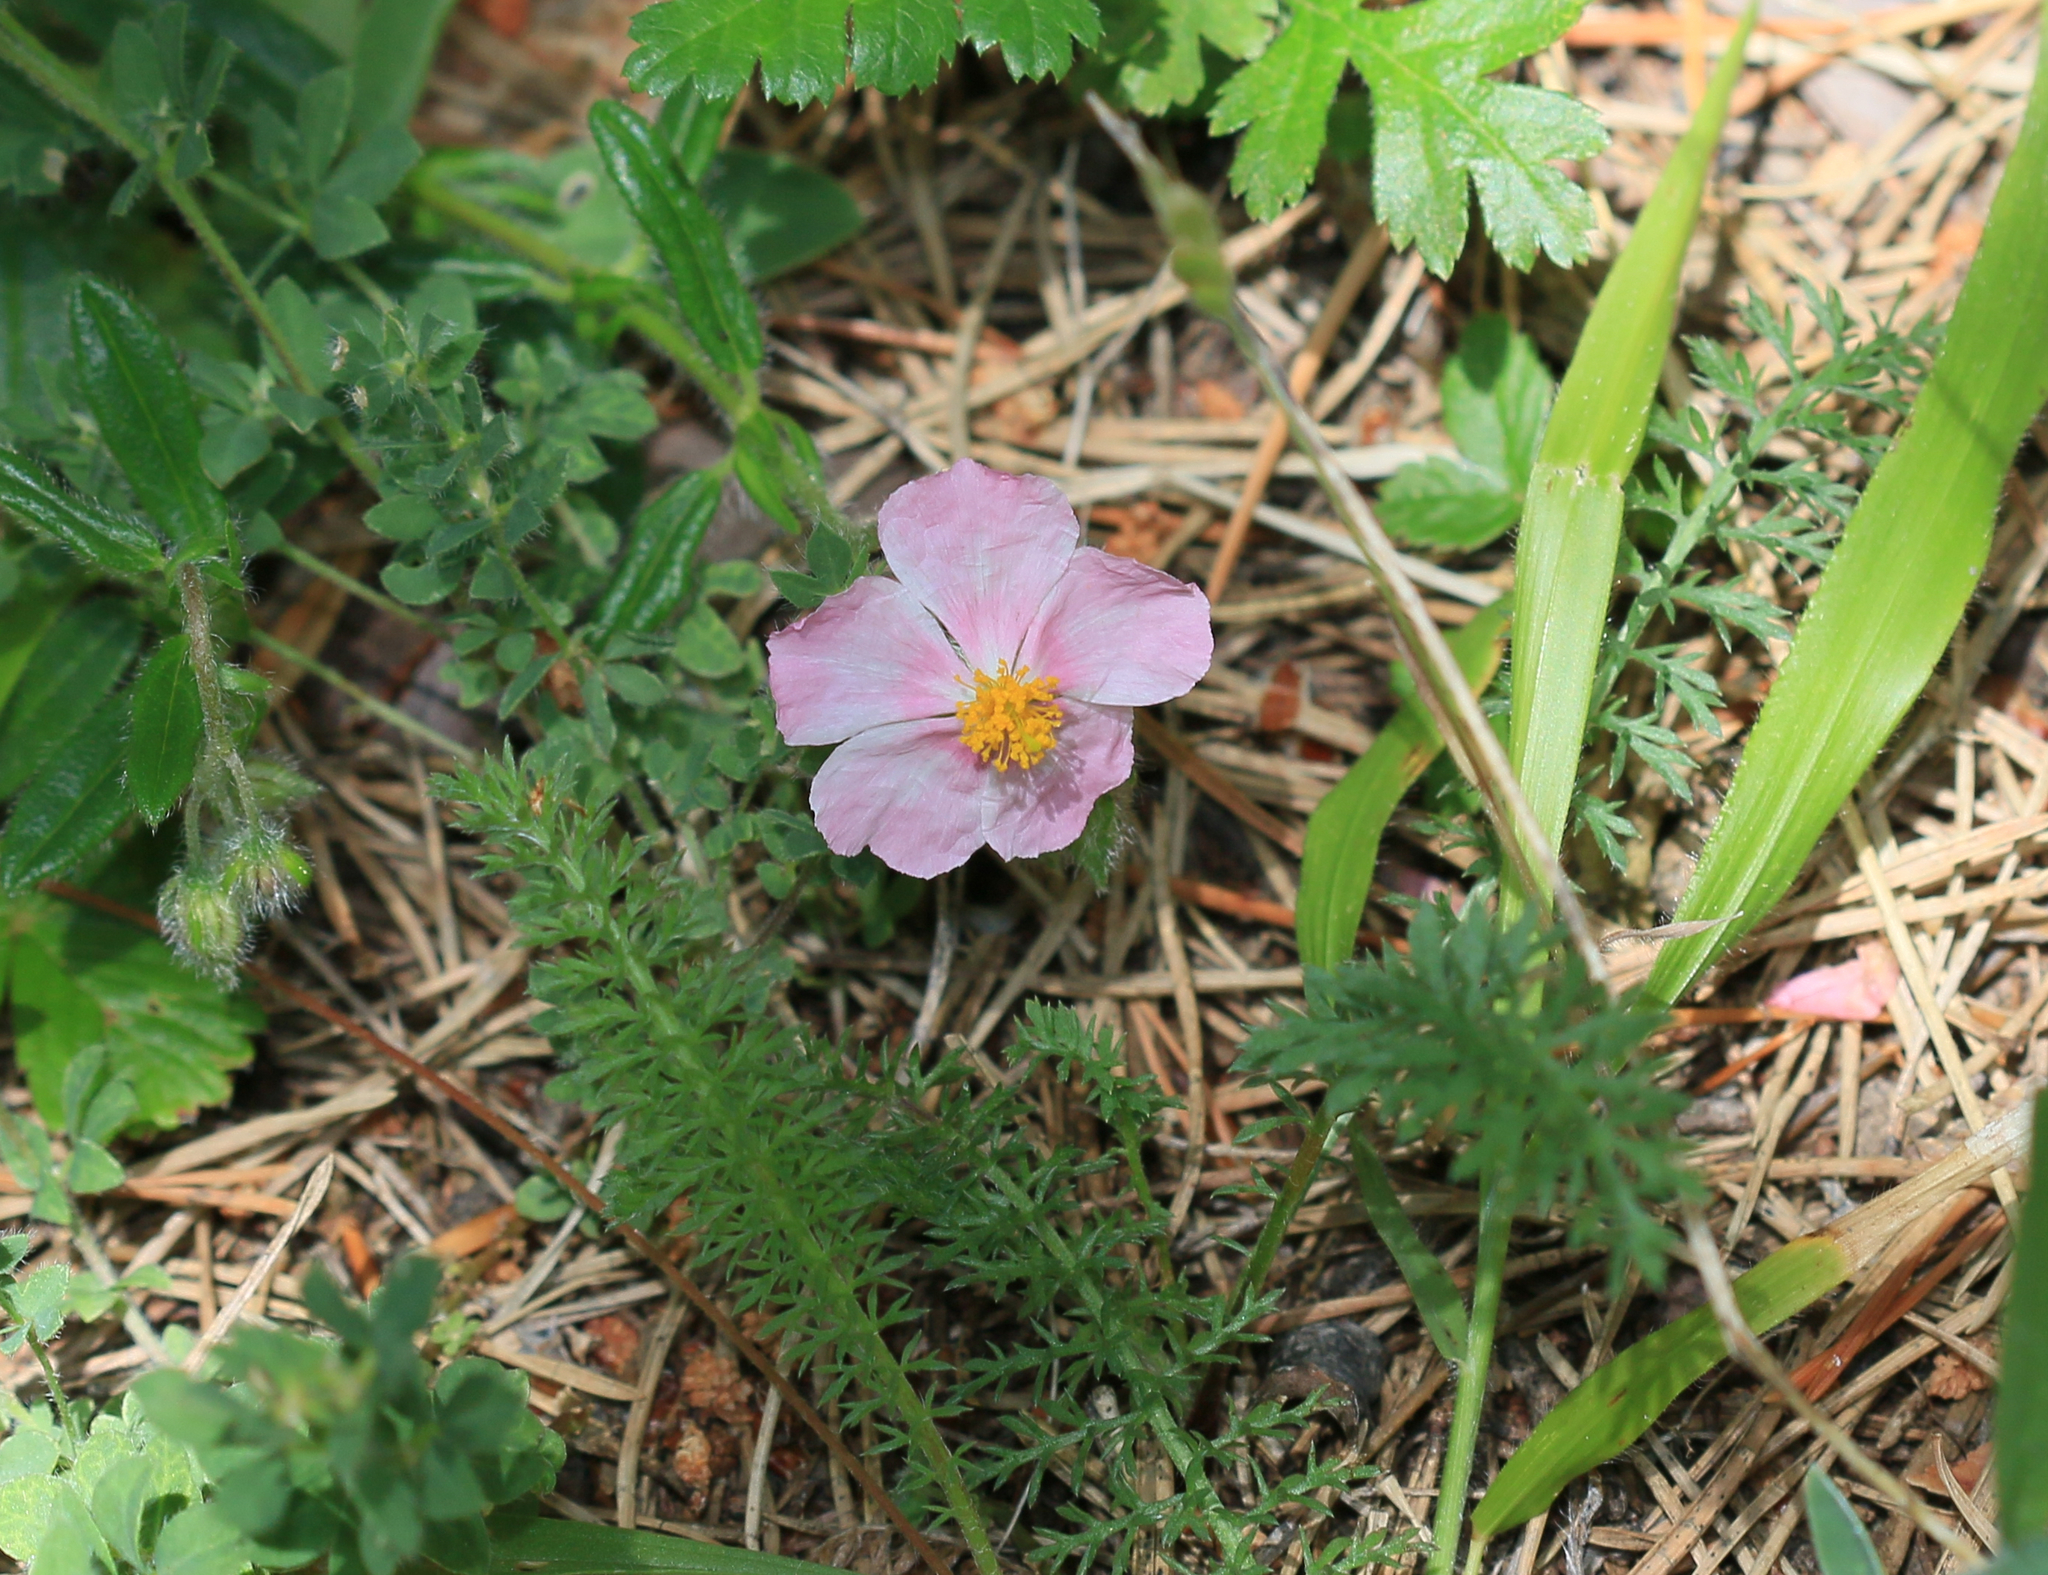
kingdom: Plantae
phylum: Tracheophyta
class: Magnoliopsida
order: Malvales
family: Cistaceae
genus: Helianthemum
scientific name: Helianthemum nummularium
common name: Common rock-rose
